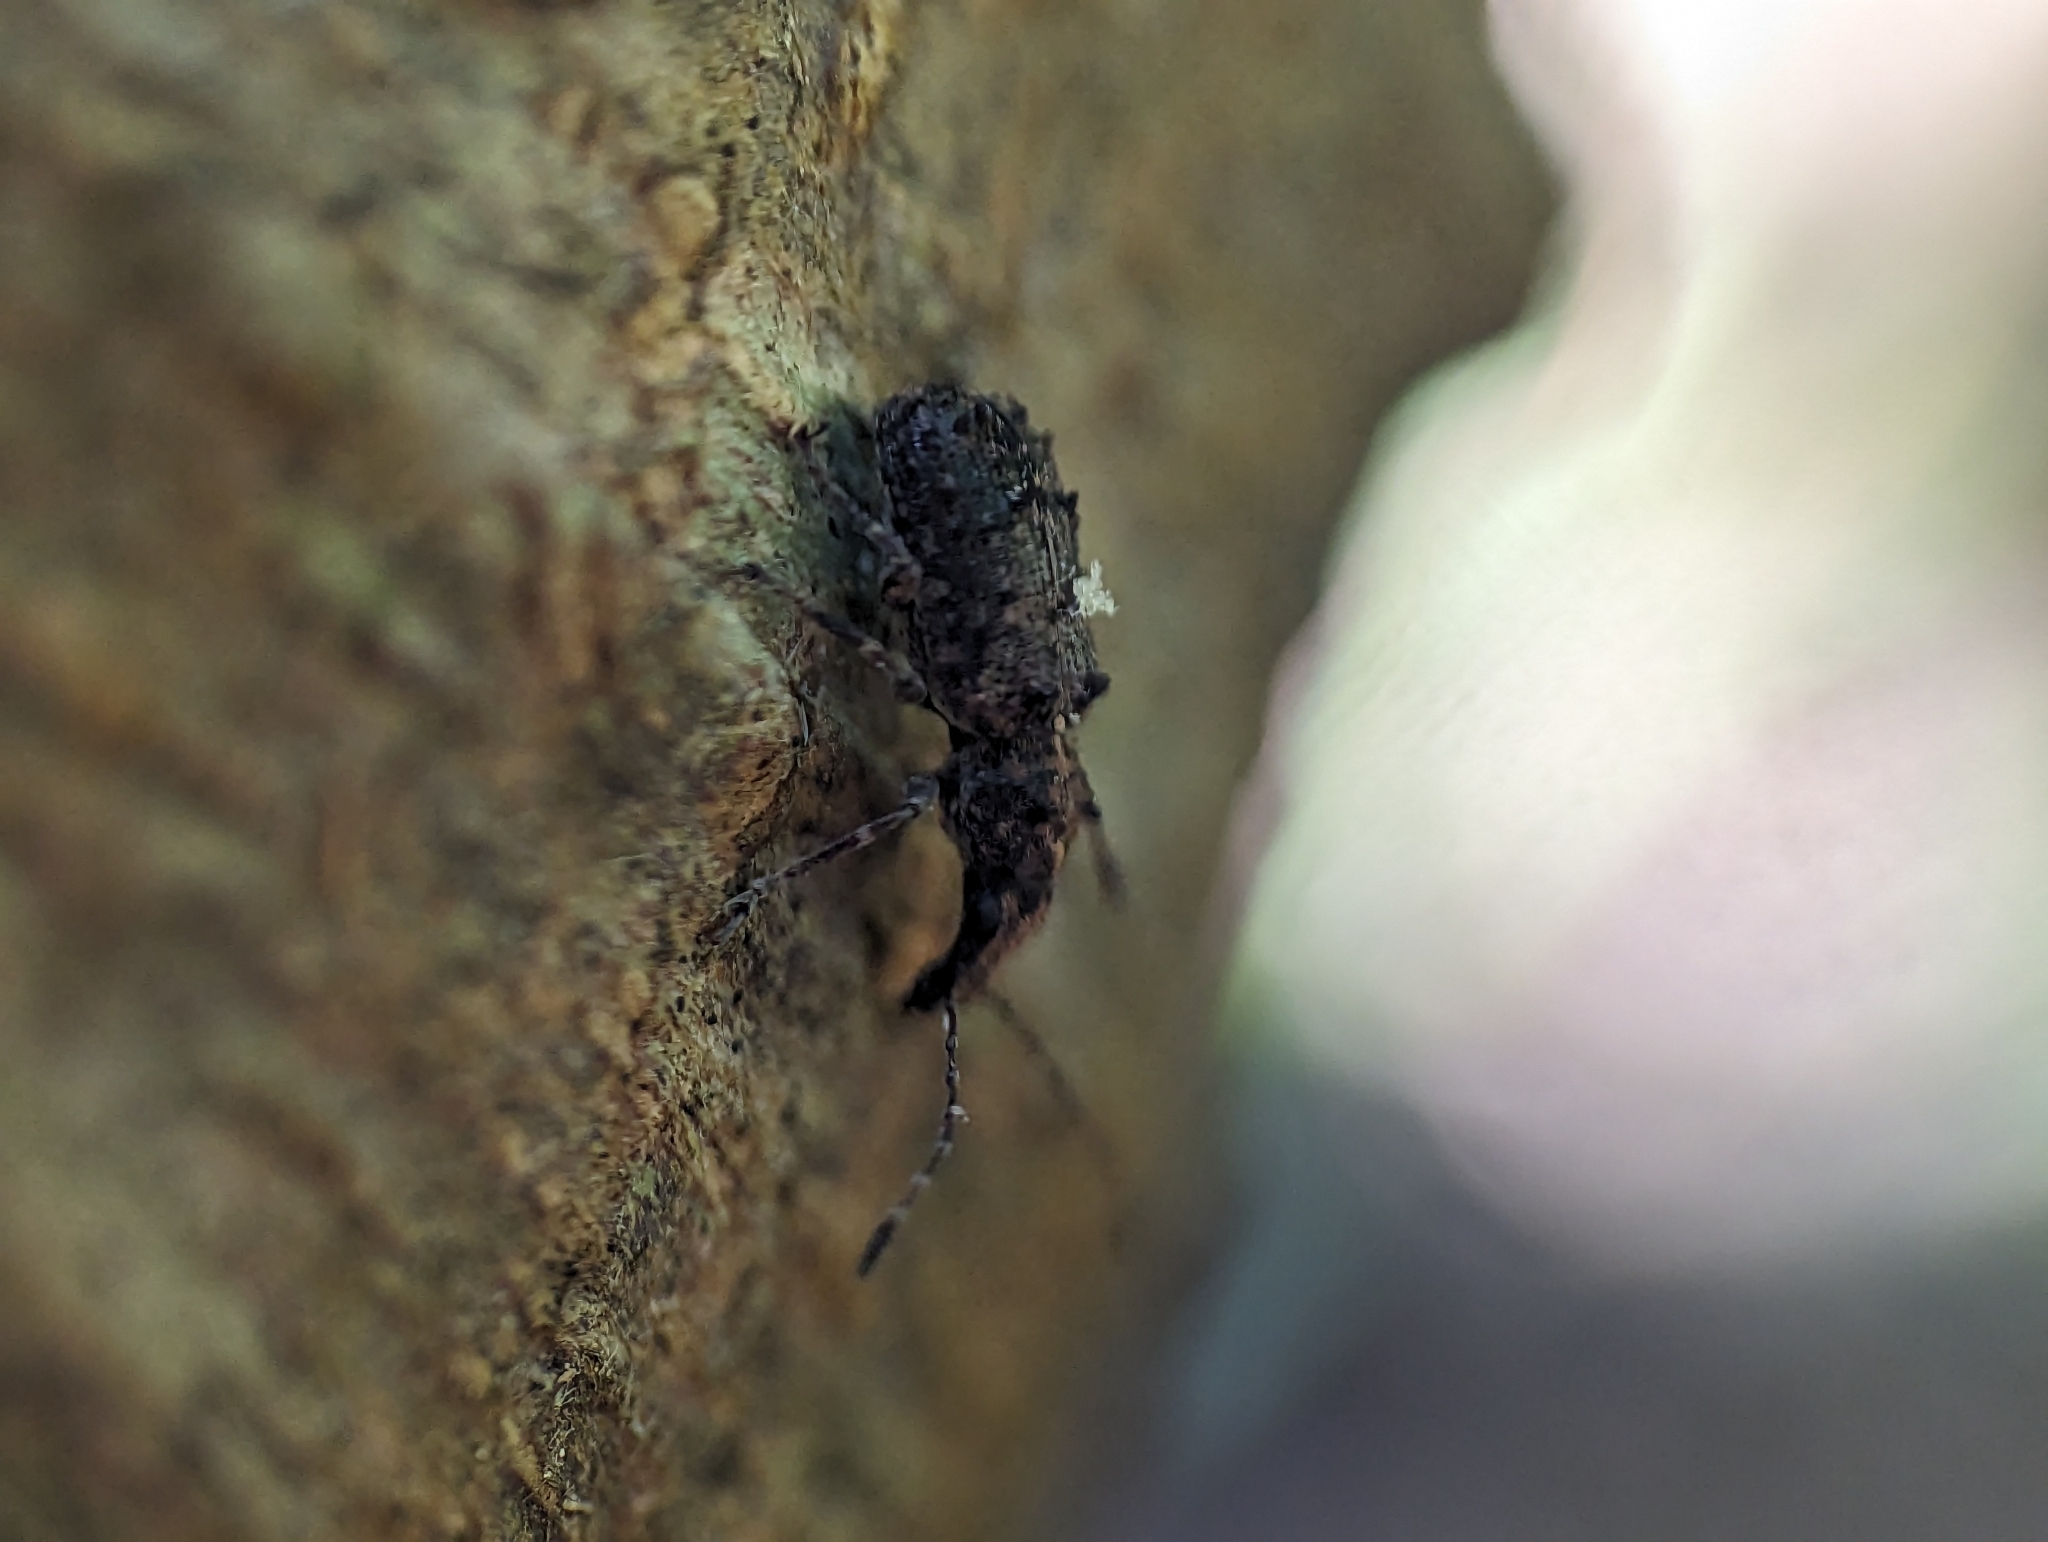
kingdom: Animalia
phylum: Arthropoda
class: Insecta
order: Coleoptera
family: Anthribidae
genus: Holophloeus
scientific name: Holophloeus nigellus
